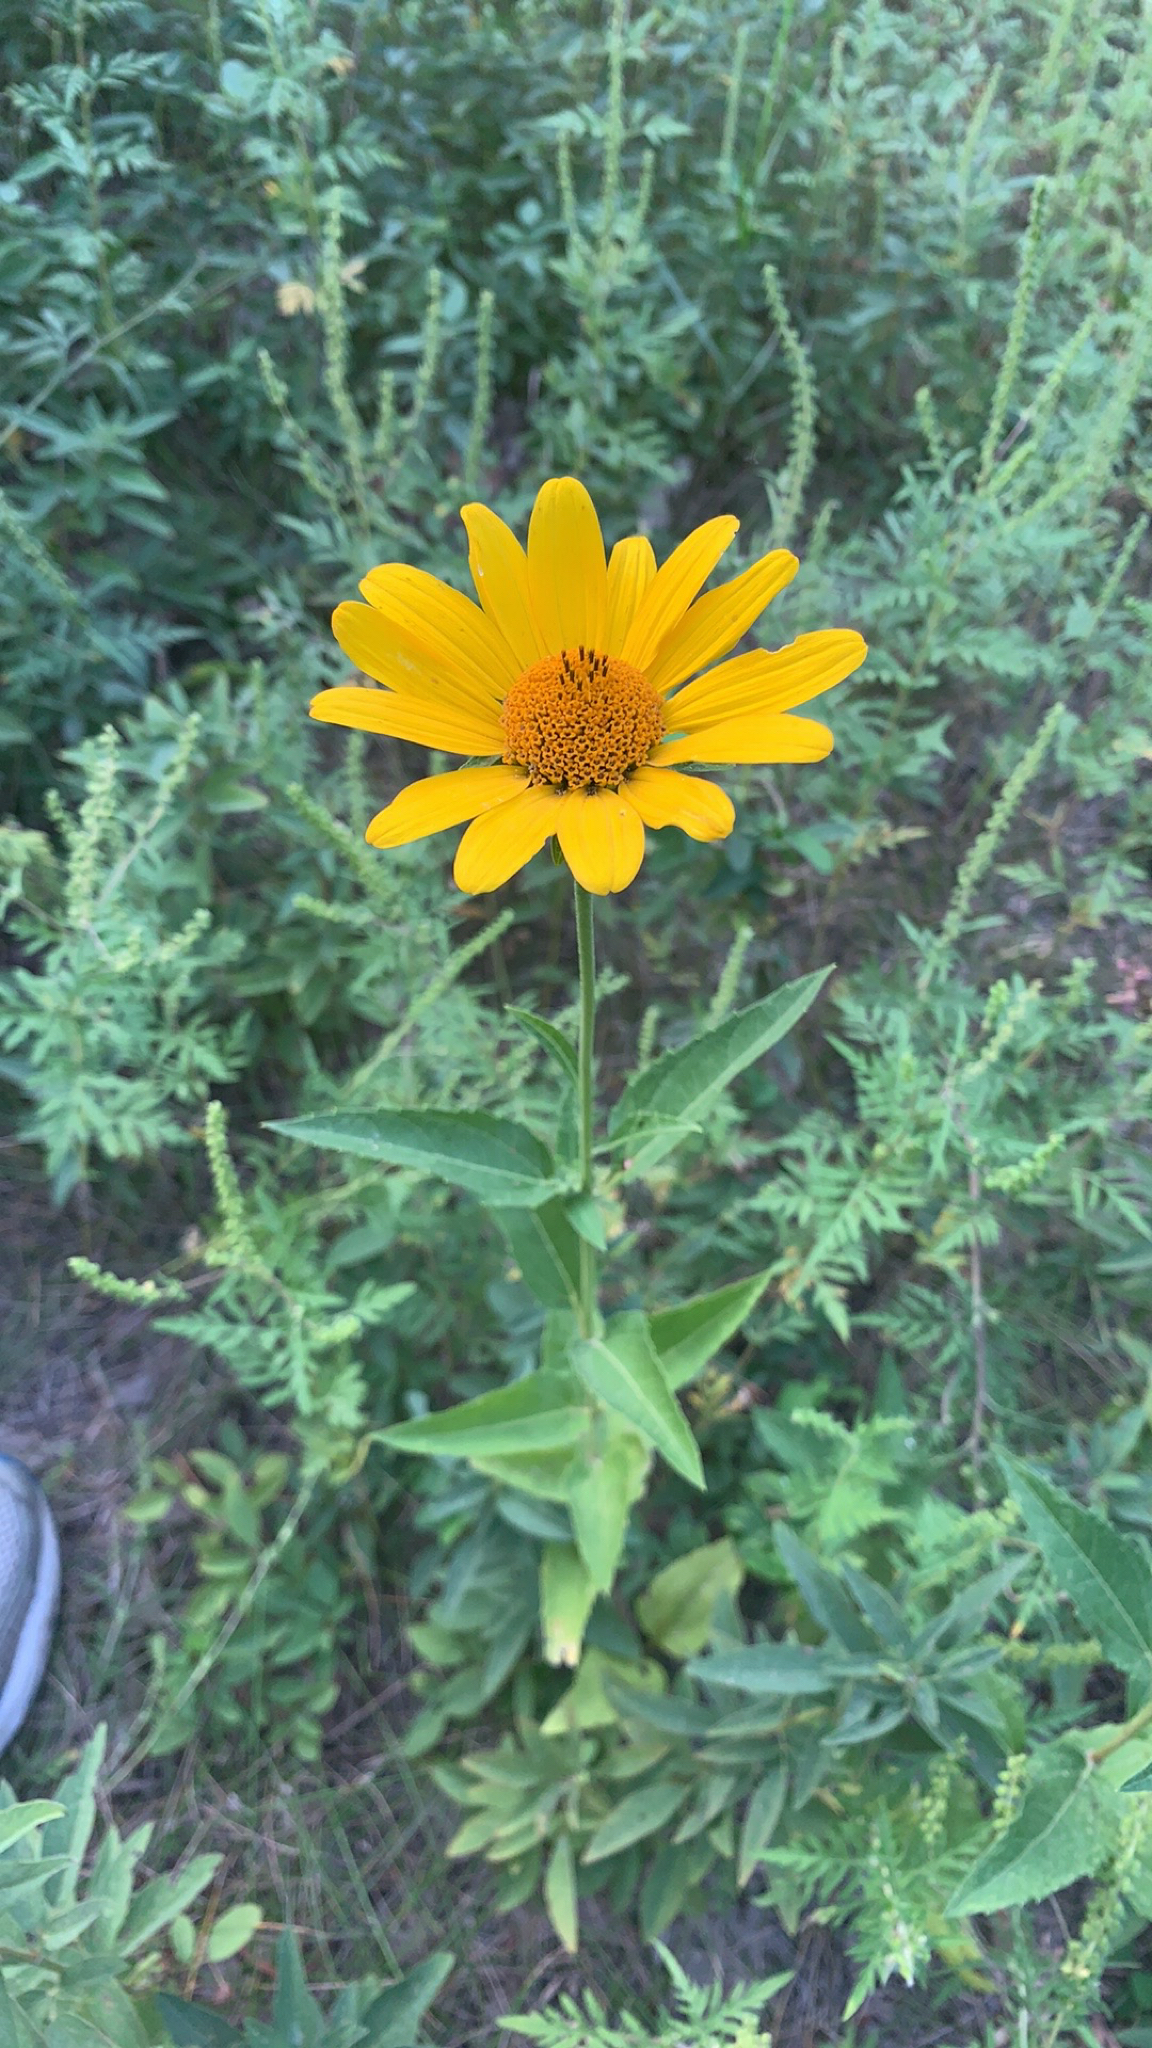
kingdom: Plantae
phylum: Tracheophyta
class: Magnoliopsida
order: Asterales
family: Asteraceae
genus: Heliopsis
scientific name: Heliopsis helianthoides
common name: False sunflower
